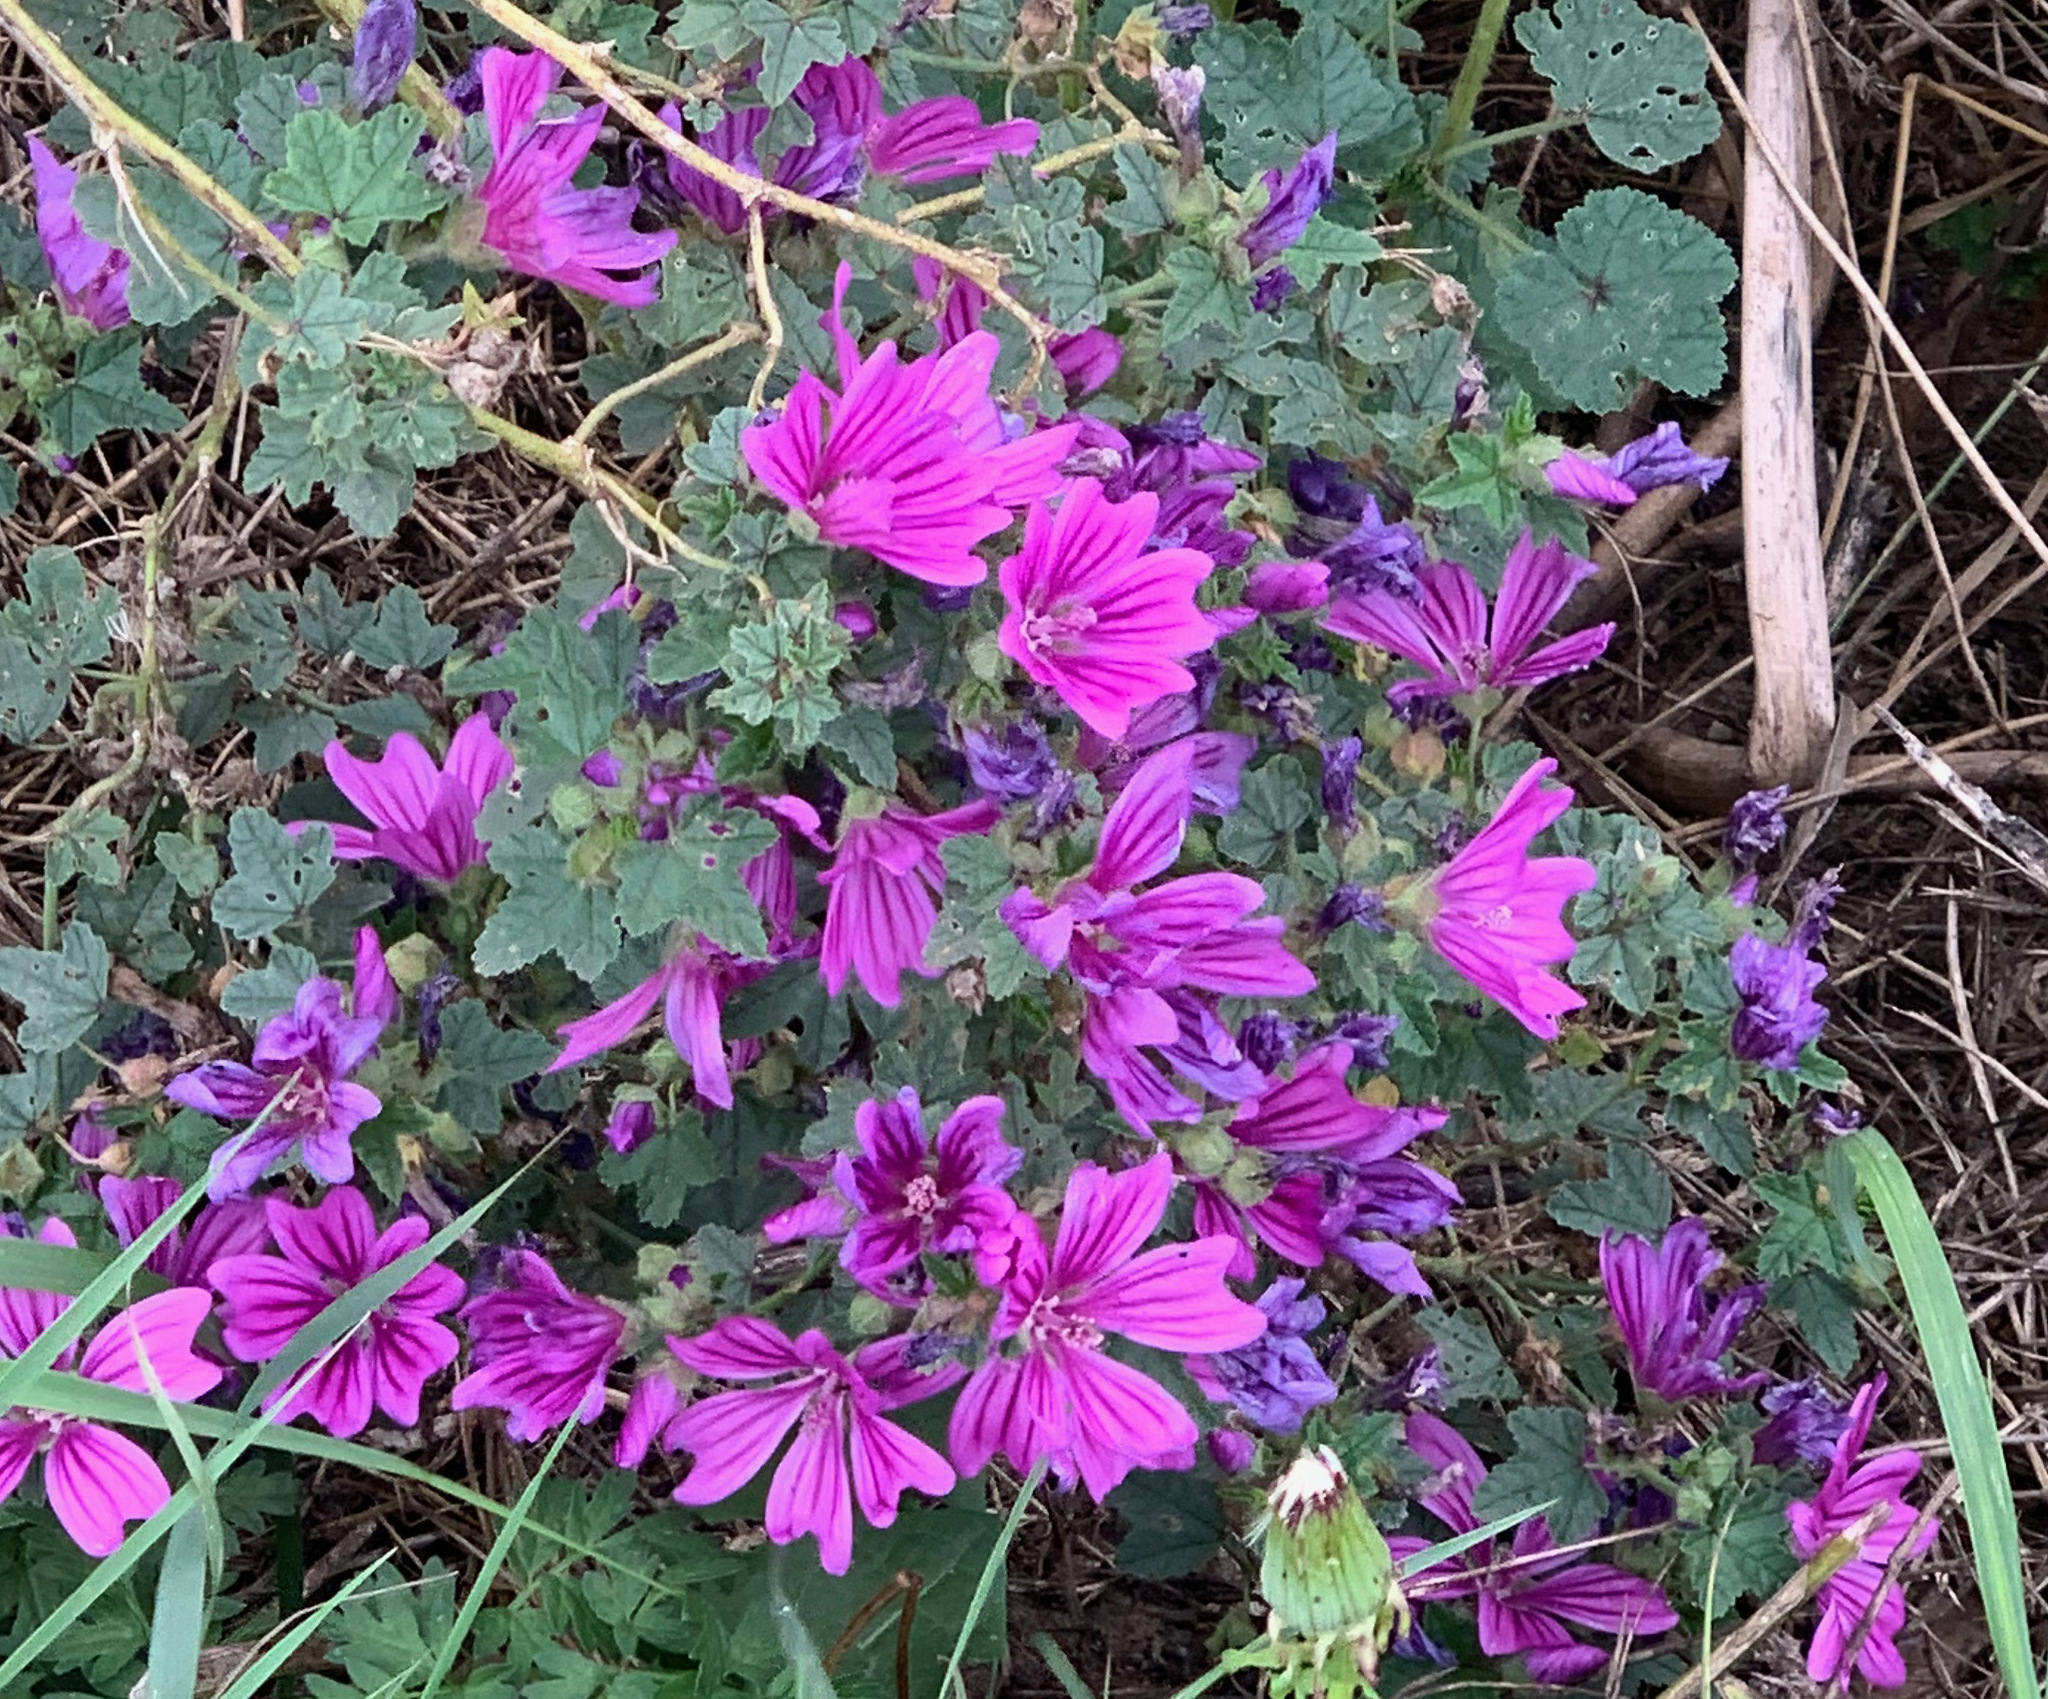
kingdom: Plantae
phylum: Tracheophyta
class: Magnoliopsida
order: Malvales
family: Malvaceae
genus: Malva
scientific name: Malva sylvestris
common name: Common mallow
